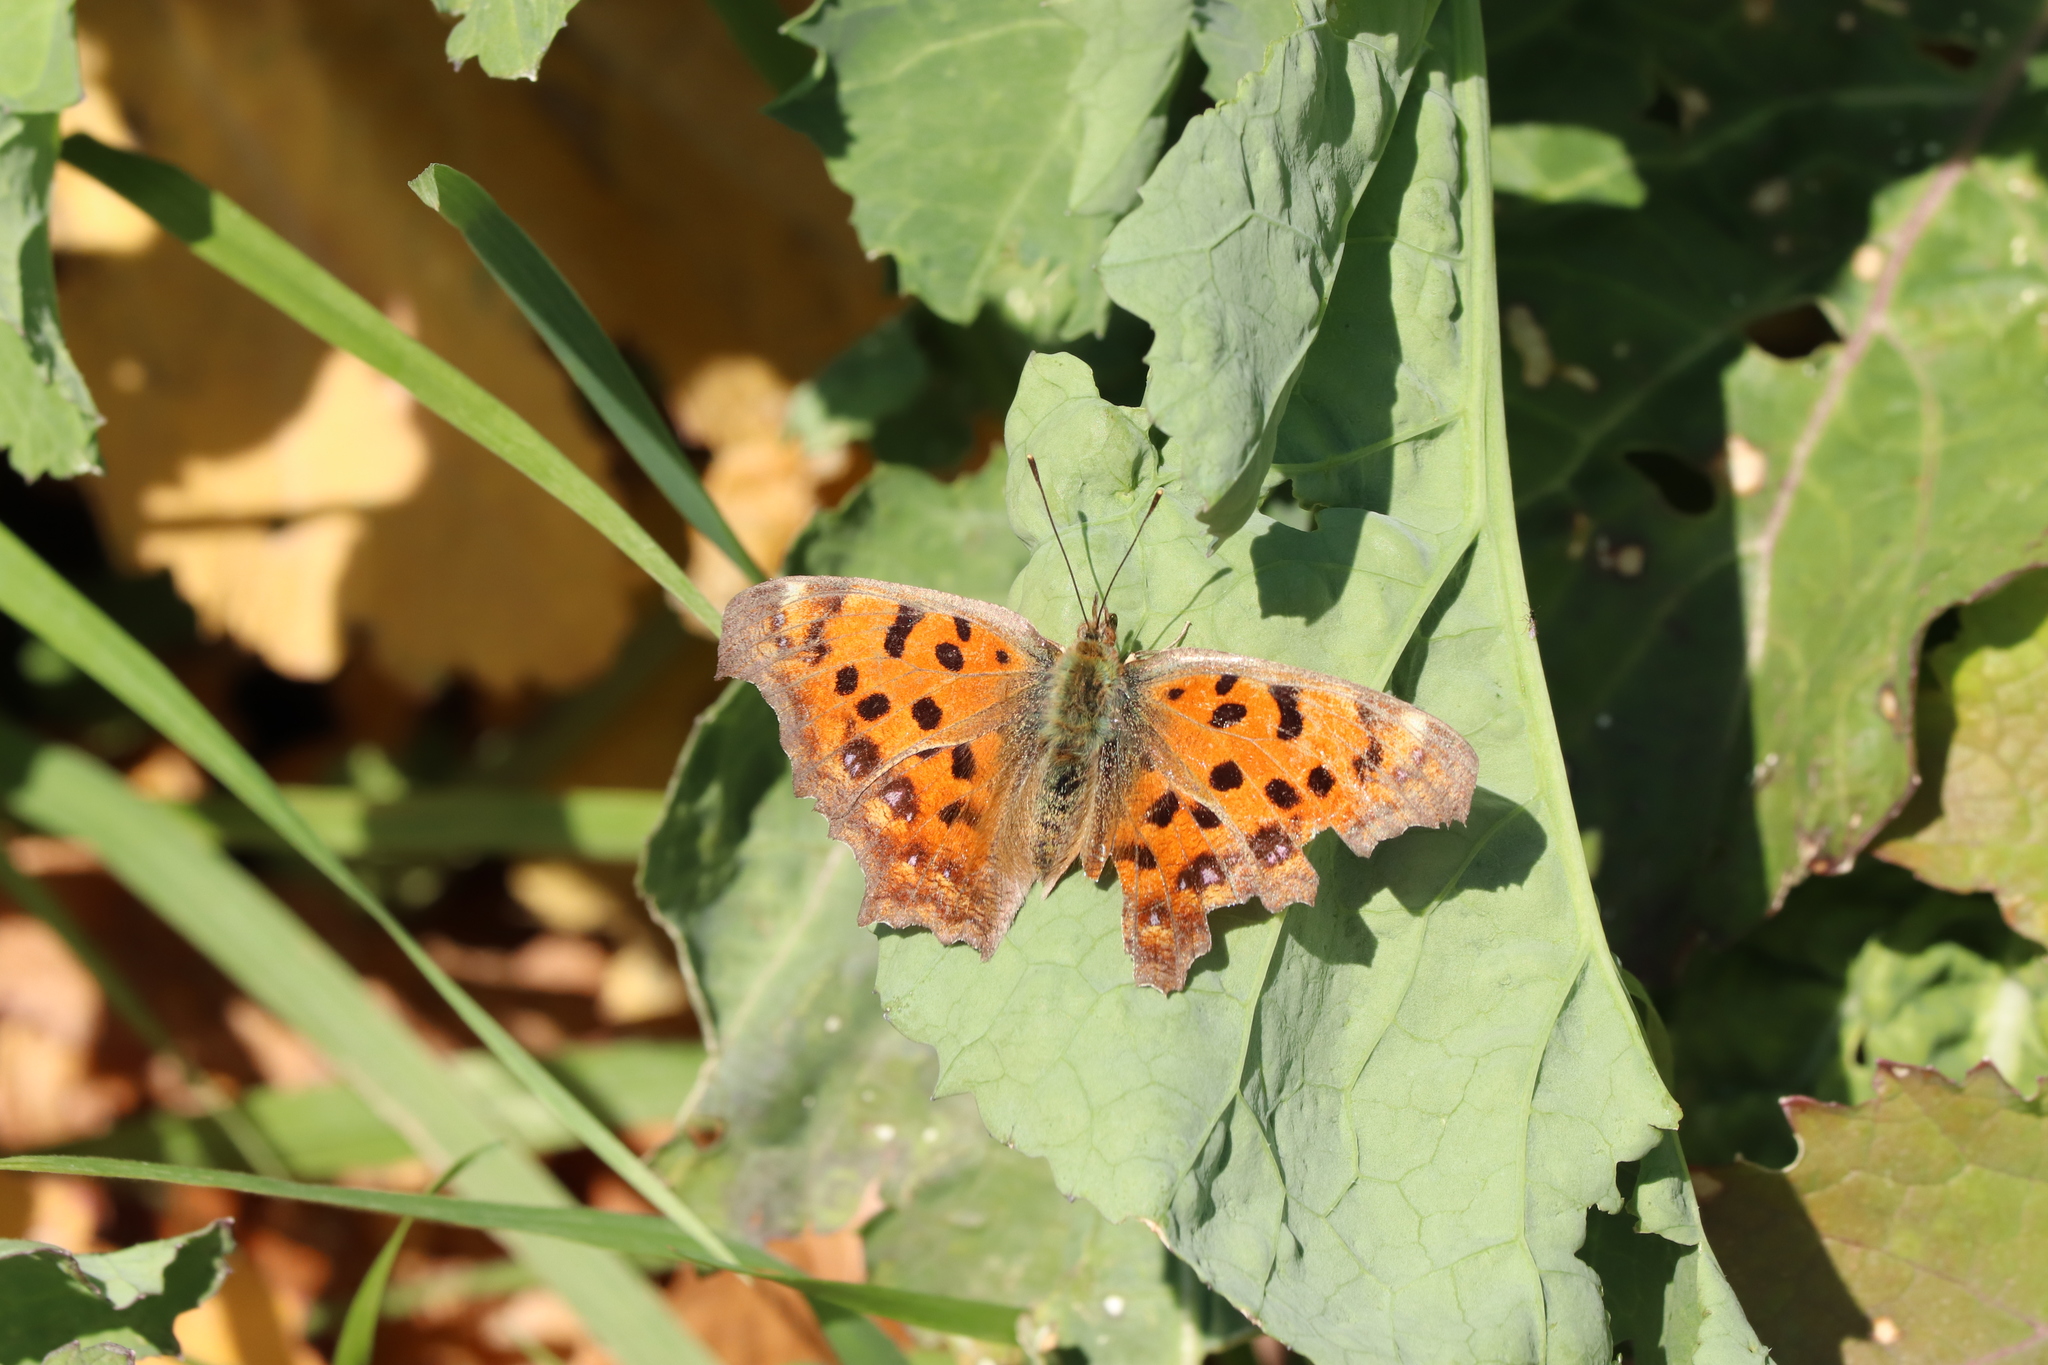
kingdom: Animalia
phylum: Arthropoda
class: Insecta
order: Lepidoptera
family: Nymphalidae
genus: Polygonia
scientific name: Polygonia c-aureum
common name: Asian comma
